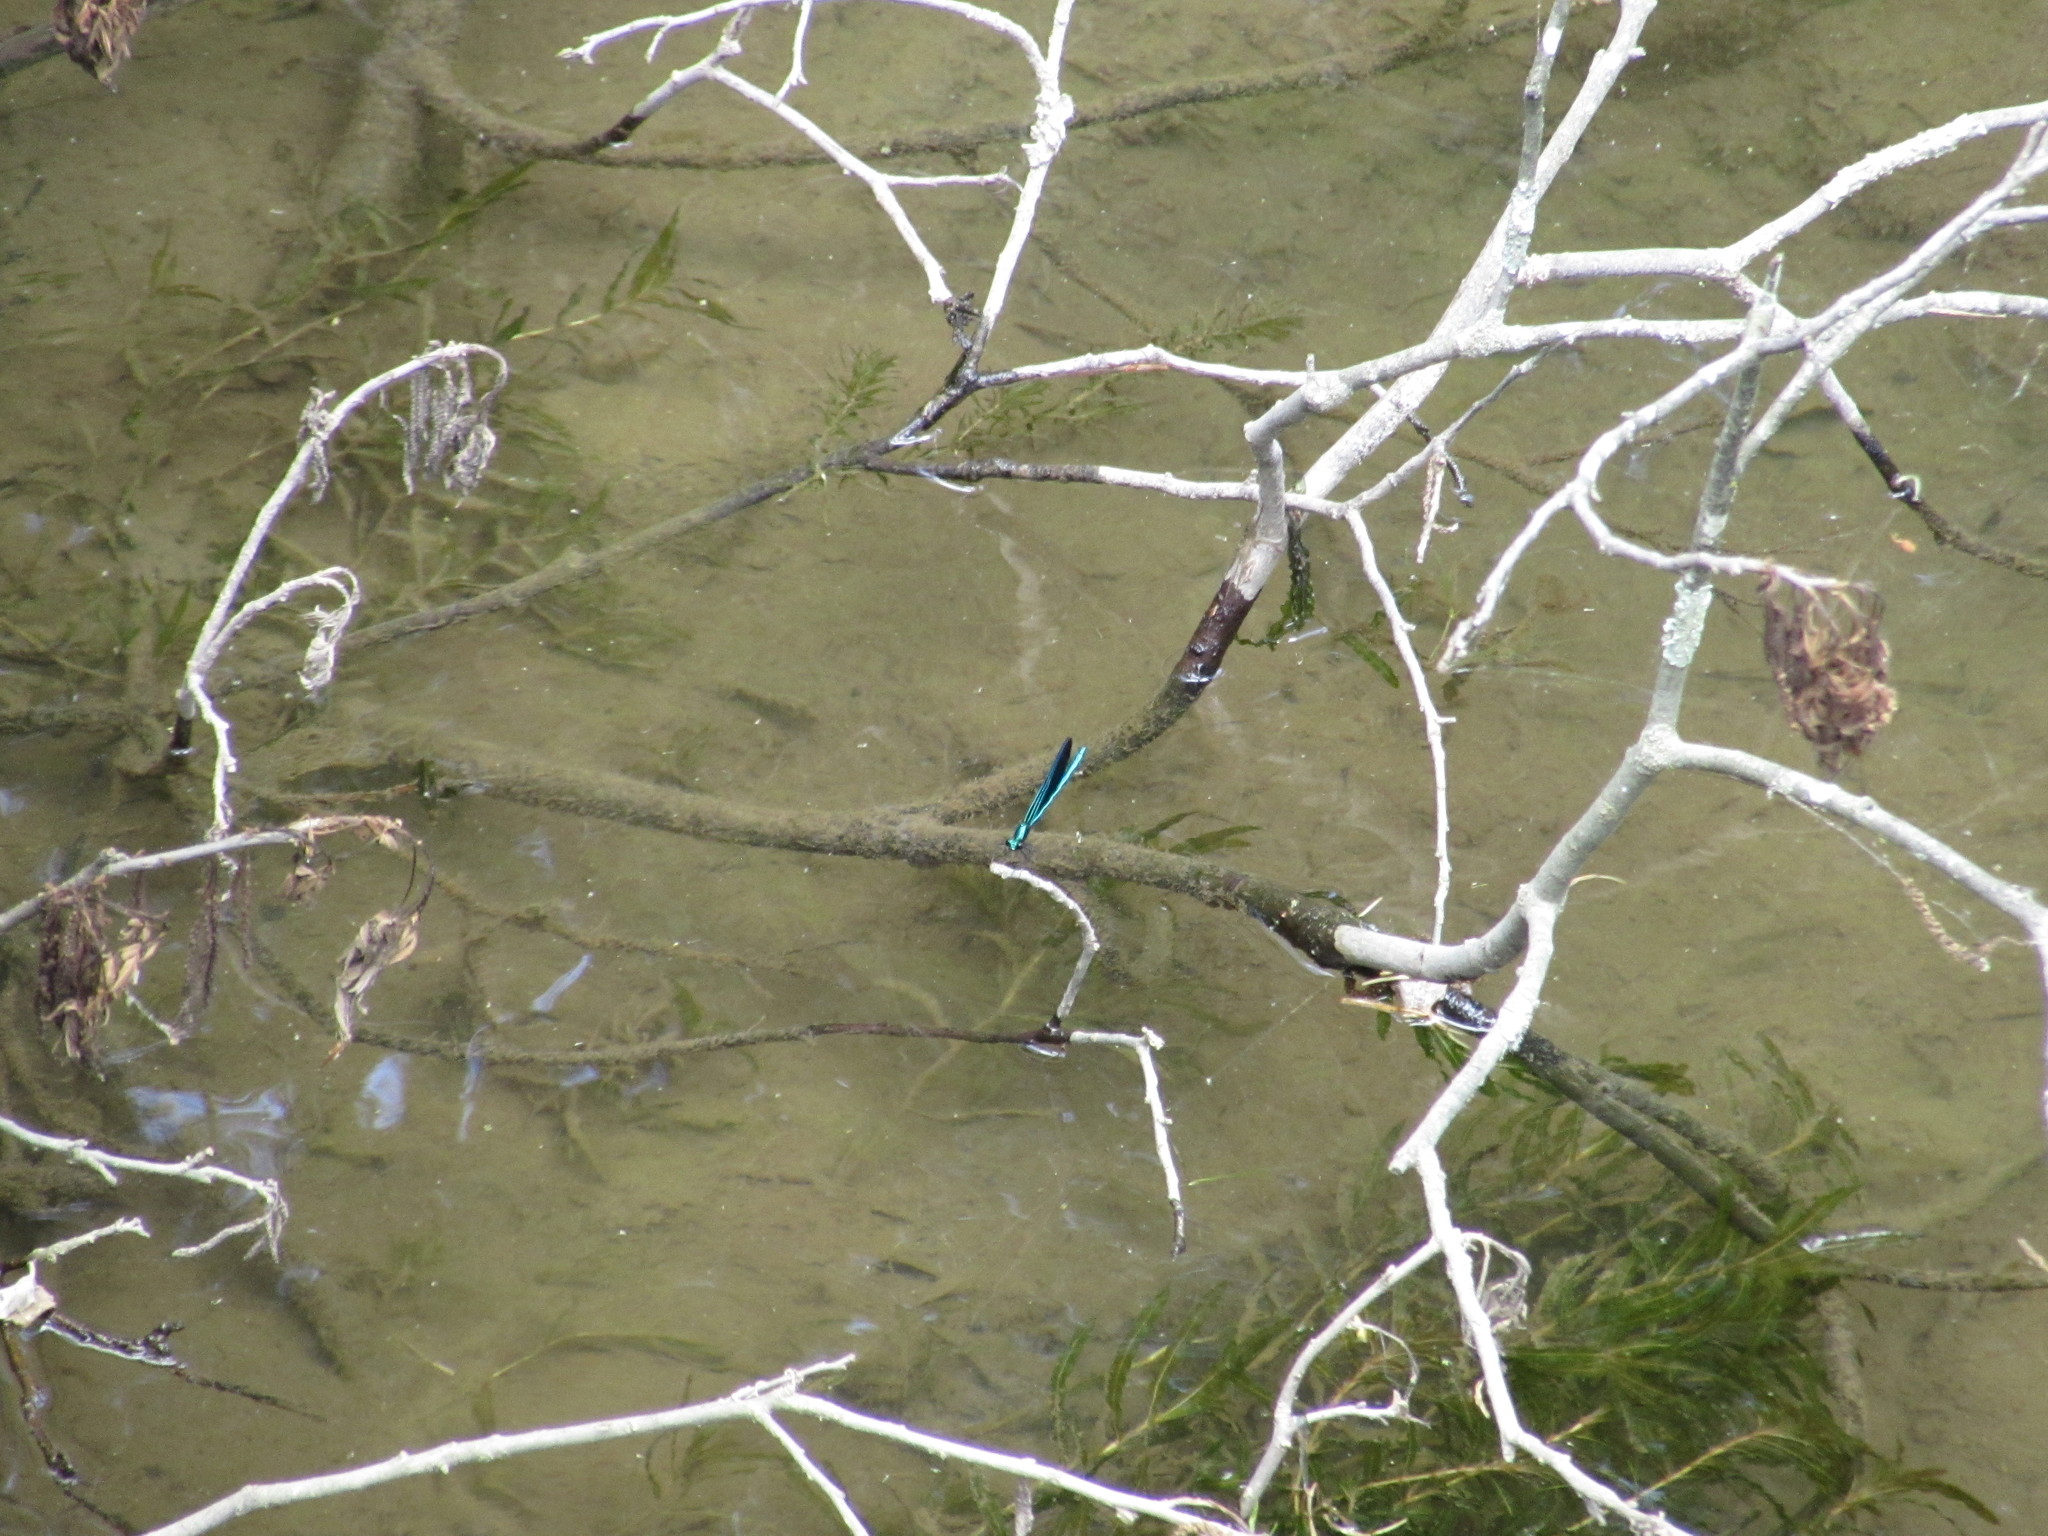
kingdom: Animalia
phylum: Arthropoda
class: Insecta
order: Odonata
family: Calopterygidae
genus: Calopteryx
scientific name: Calopteryx maculata
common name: Ebony jewelwing
